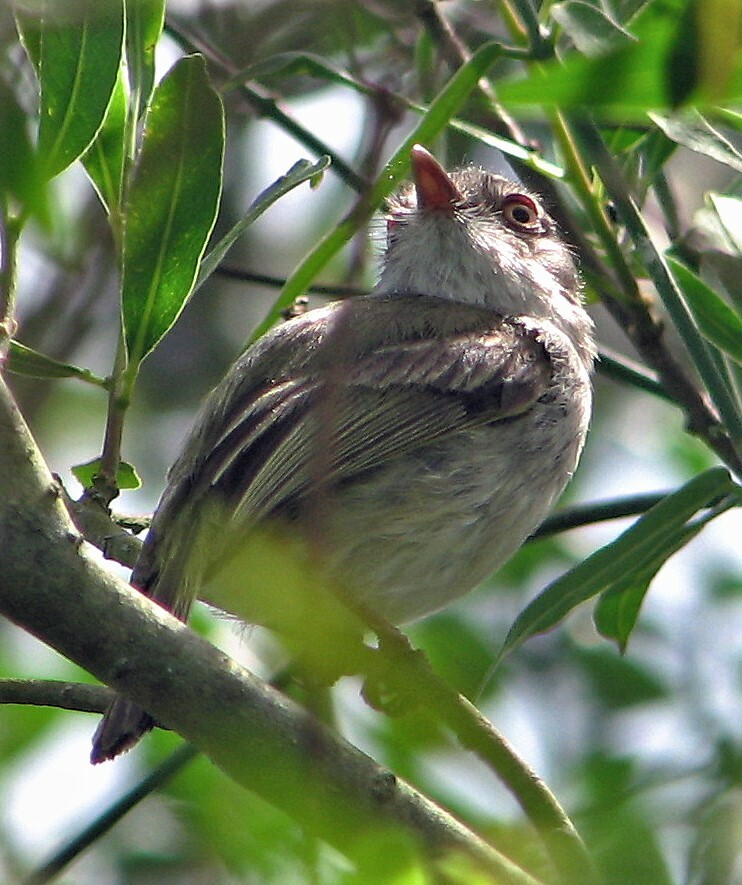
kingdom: Animalia
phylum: Chordata
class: Aves
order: Passeriformes
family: Tyrannidae
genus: Hemitriccus
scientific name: Hemitriccus margaritaceiventer
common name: Pearly-vented tody-tyrant
